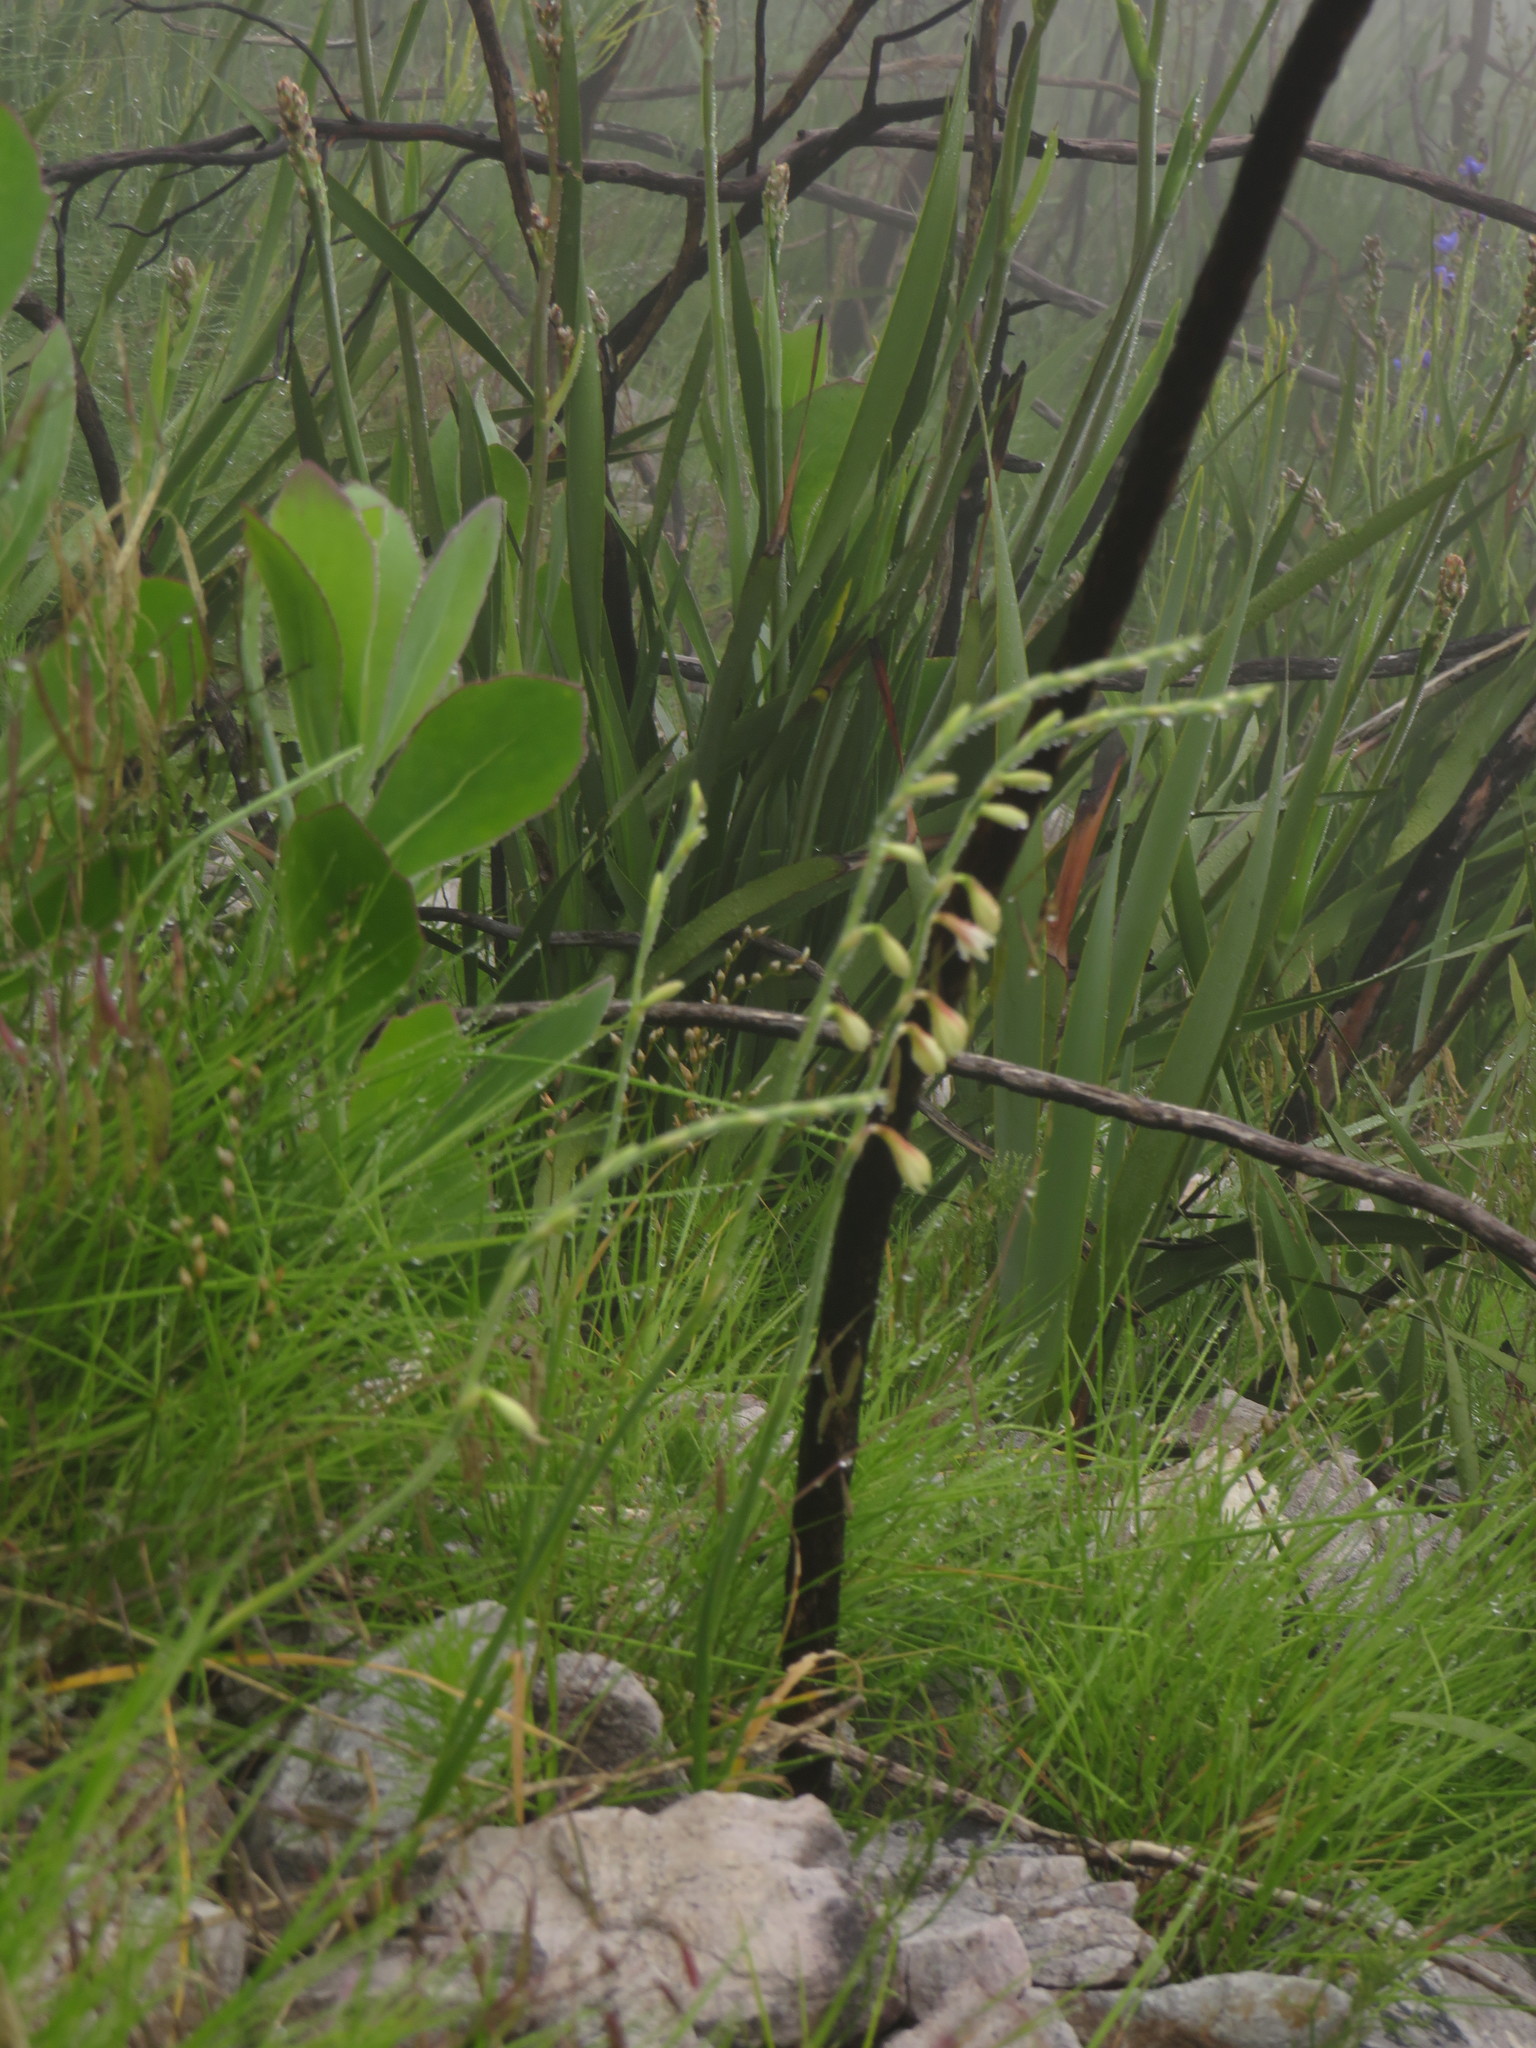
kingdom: Plantae
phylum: Tracheophyta
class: Liliopsida
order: Asparagales
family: Iridaceae
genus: Geissorhiza
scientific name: Geissorhiza juncea
